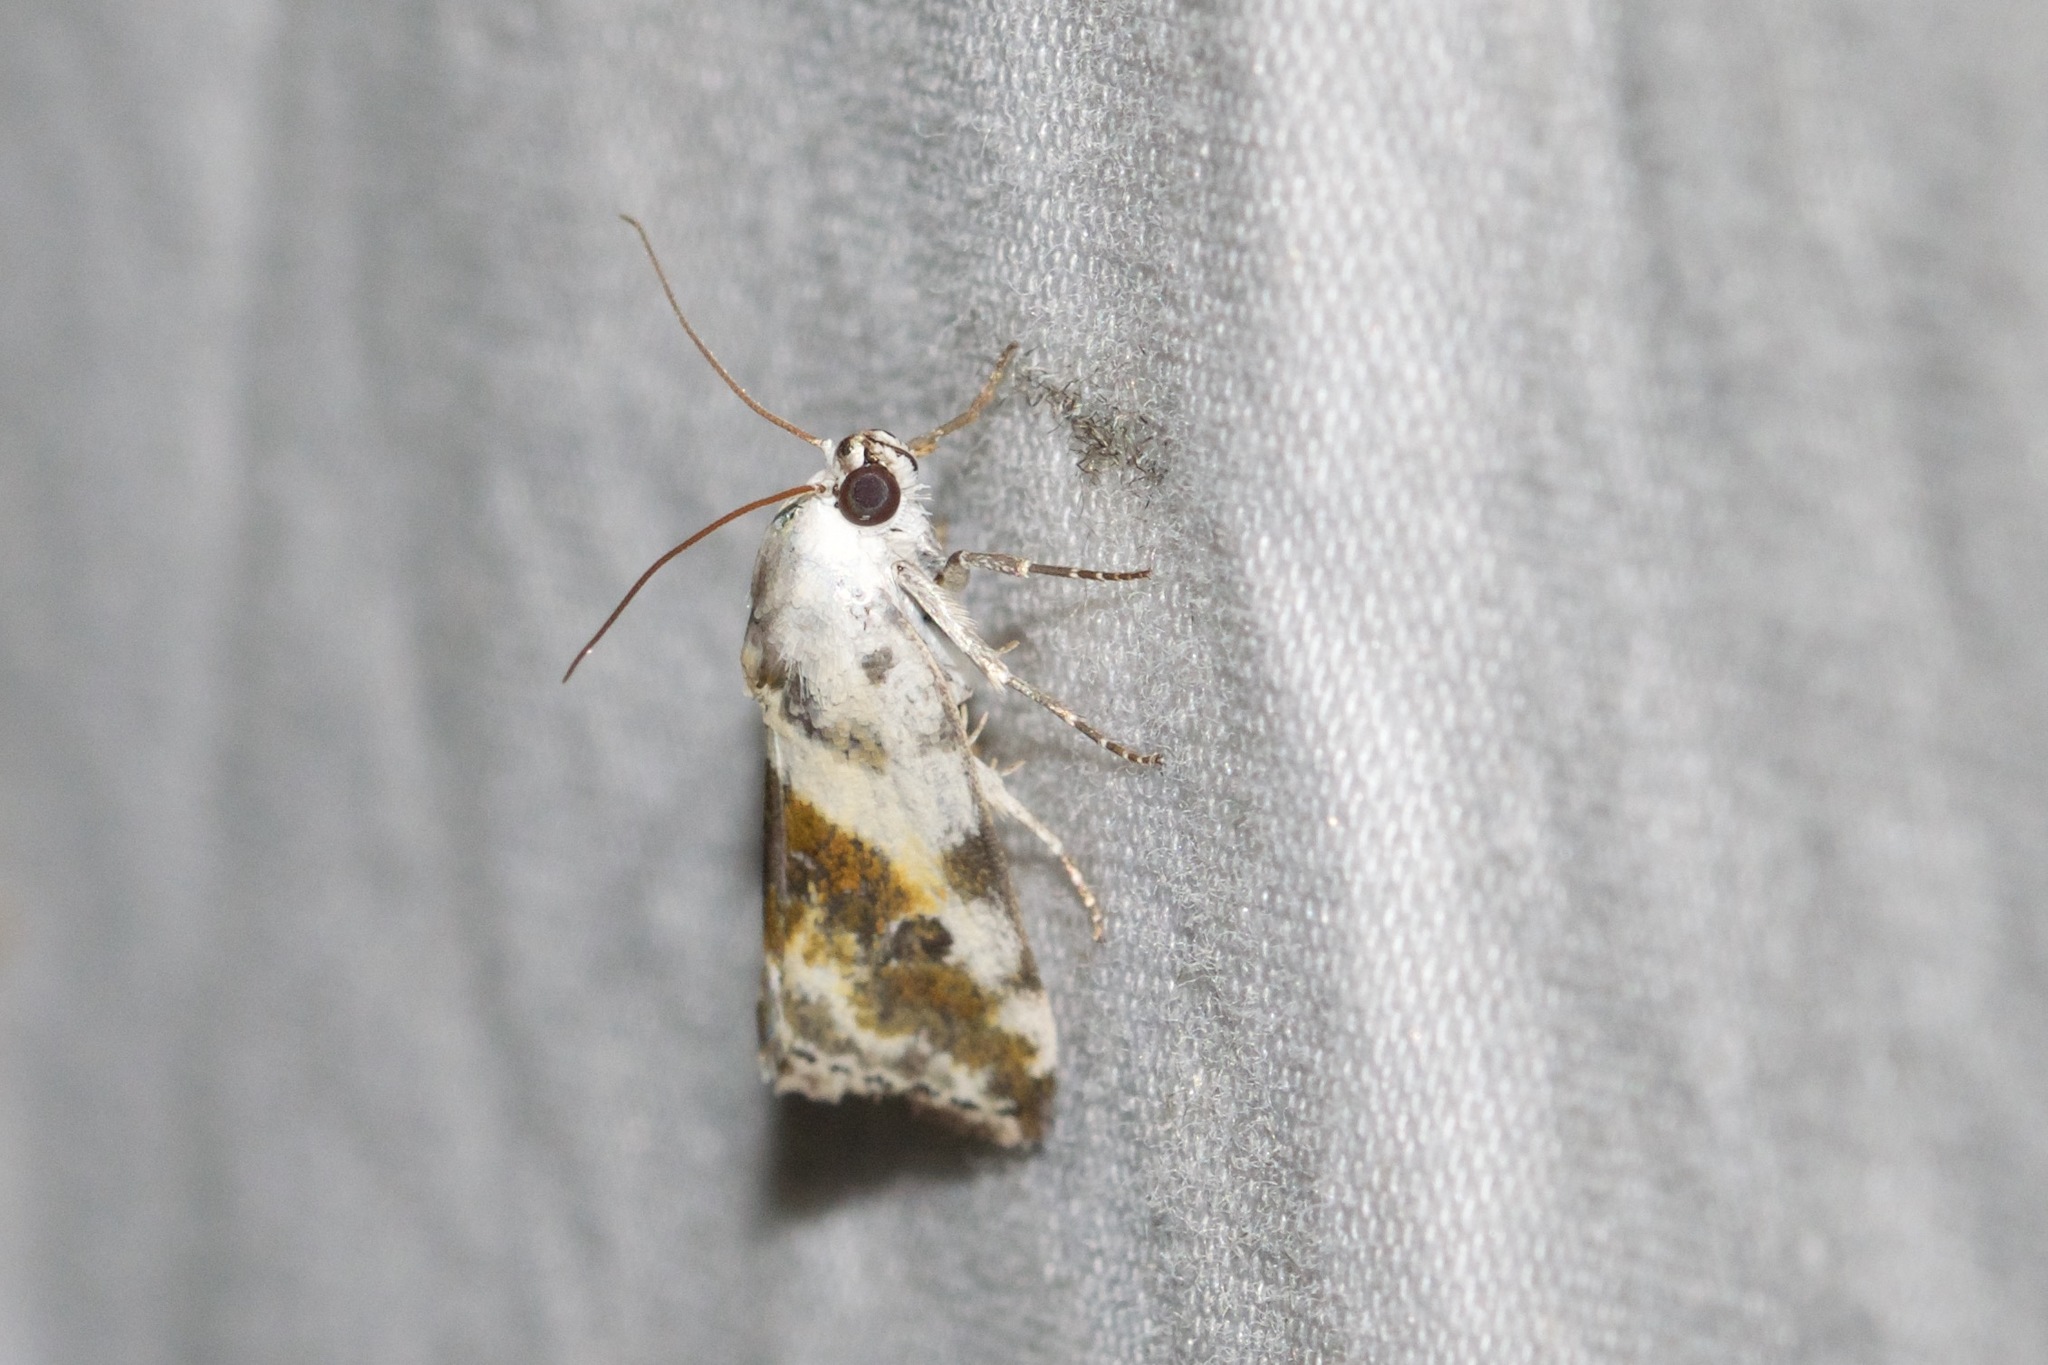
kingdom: Animalia
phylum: Arthropoda
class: Insecta
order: Lepidoptera
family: Noctuidae
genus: Acontia
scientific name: Acontia candefacta
